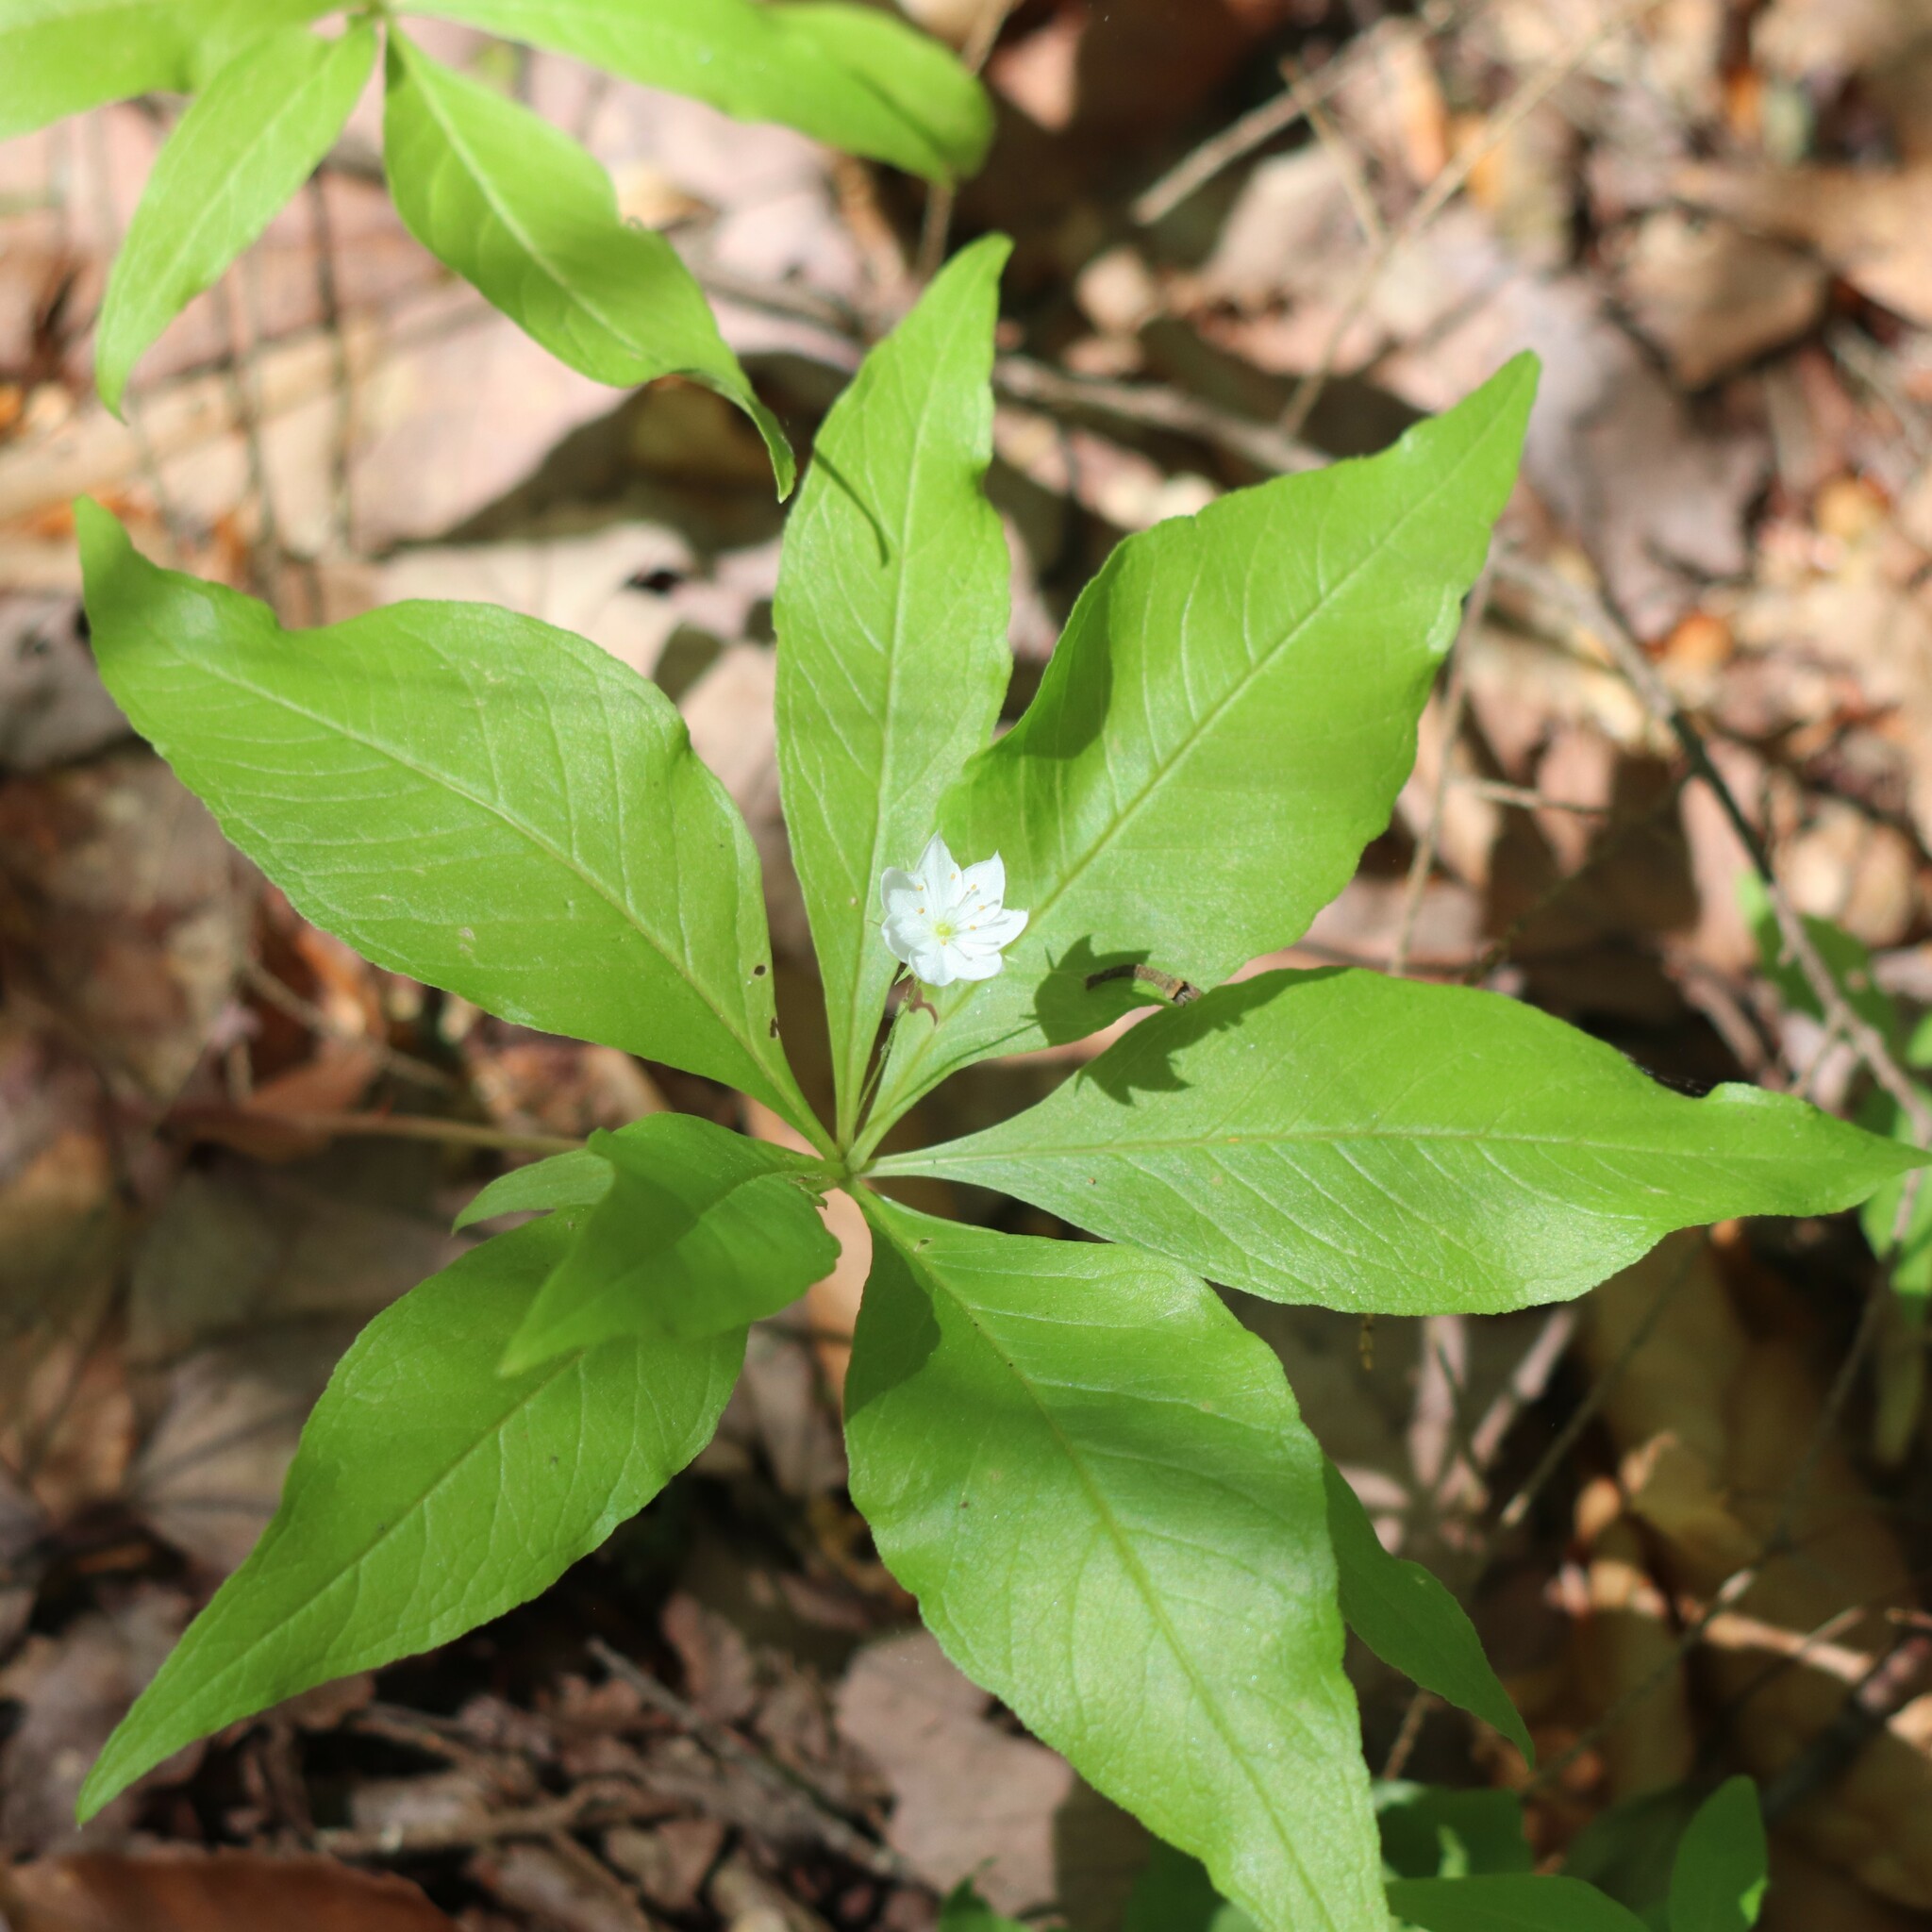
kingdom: Plantae
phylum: Tracheophyta
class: Magnoliopsida
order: Ericales
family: Primulaceae
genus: Lysimachia
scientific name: Lysimachia borealis
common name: American starflower
